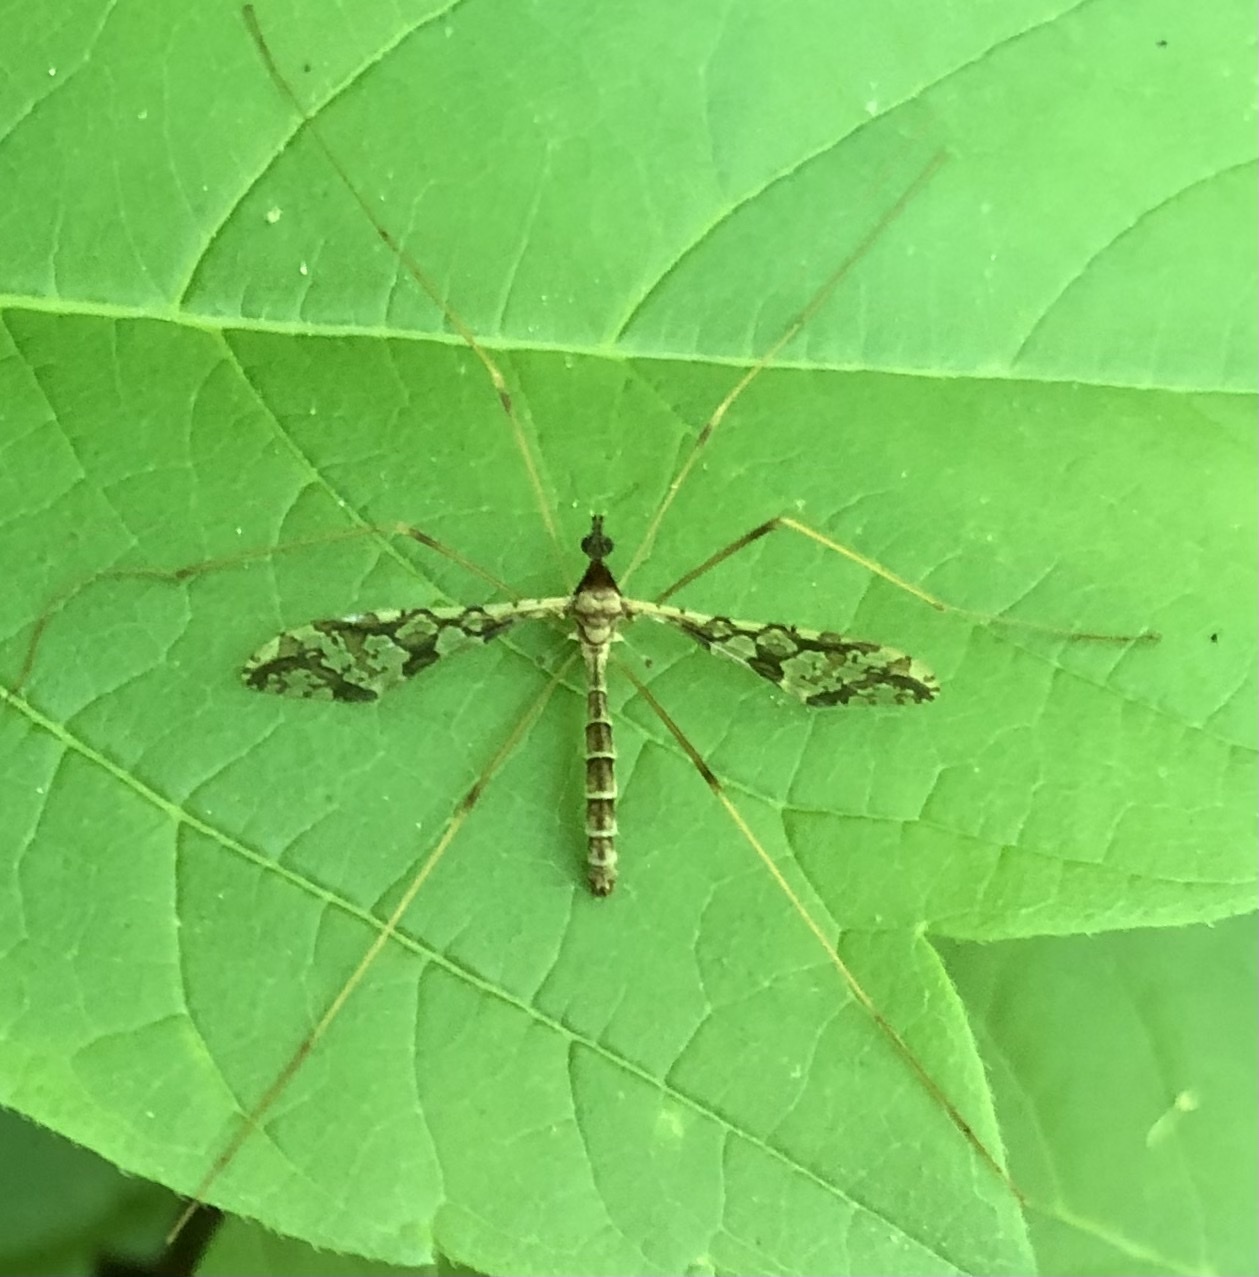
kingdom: Animalia
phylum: Arthropoda
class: Insecta
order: Diptera
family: Limoniidae
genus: Epiphragma
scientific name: Epiphragma solatrix
